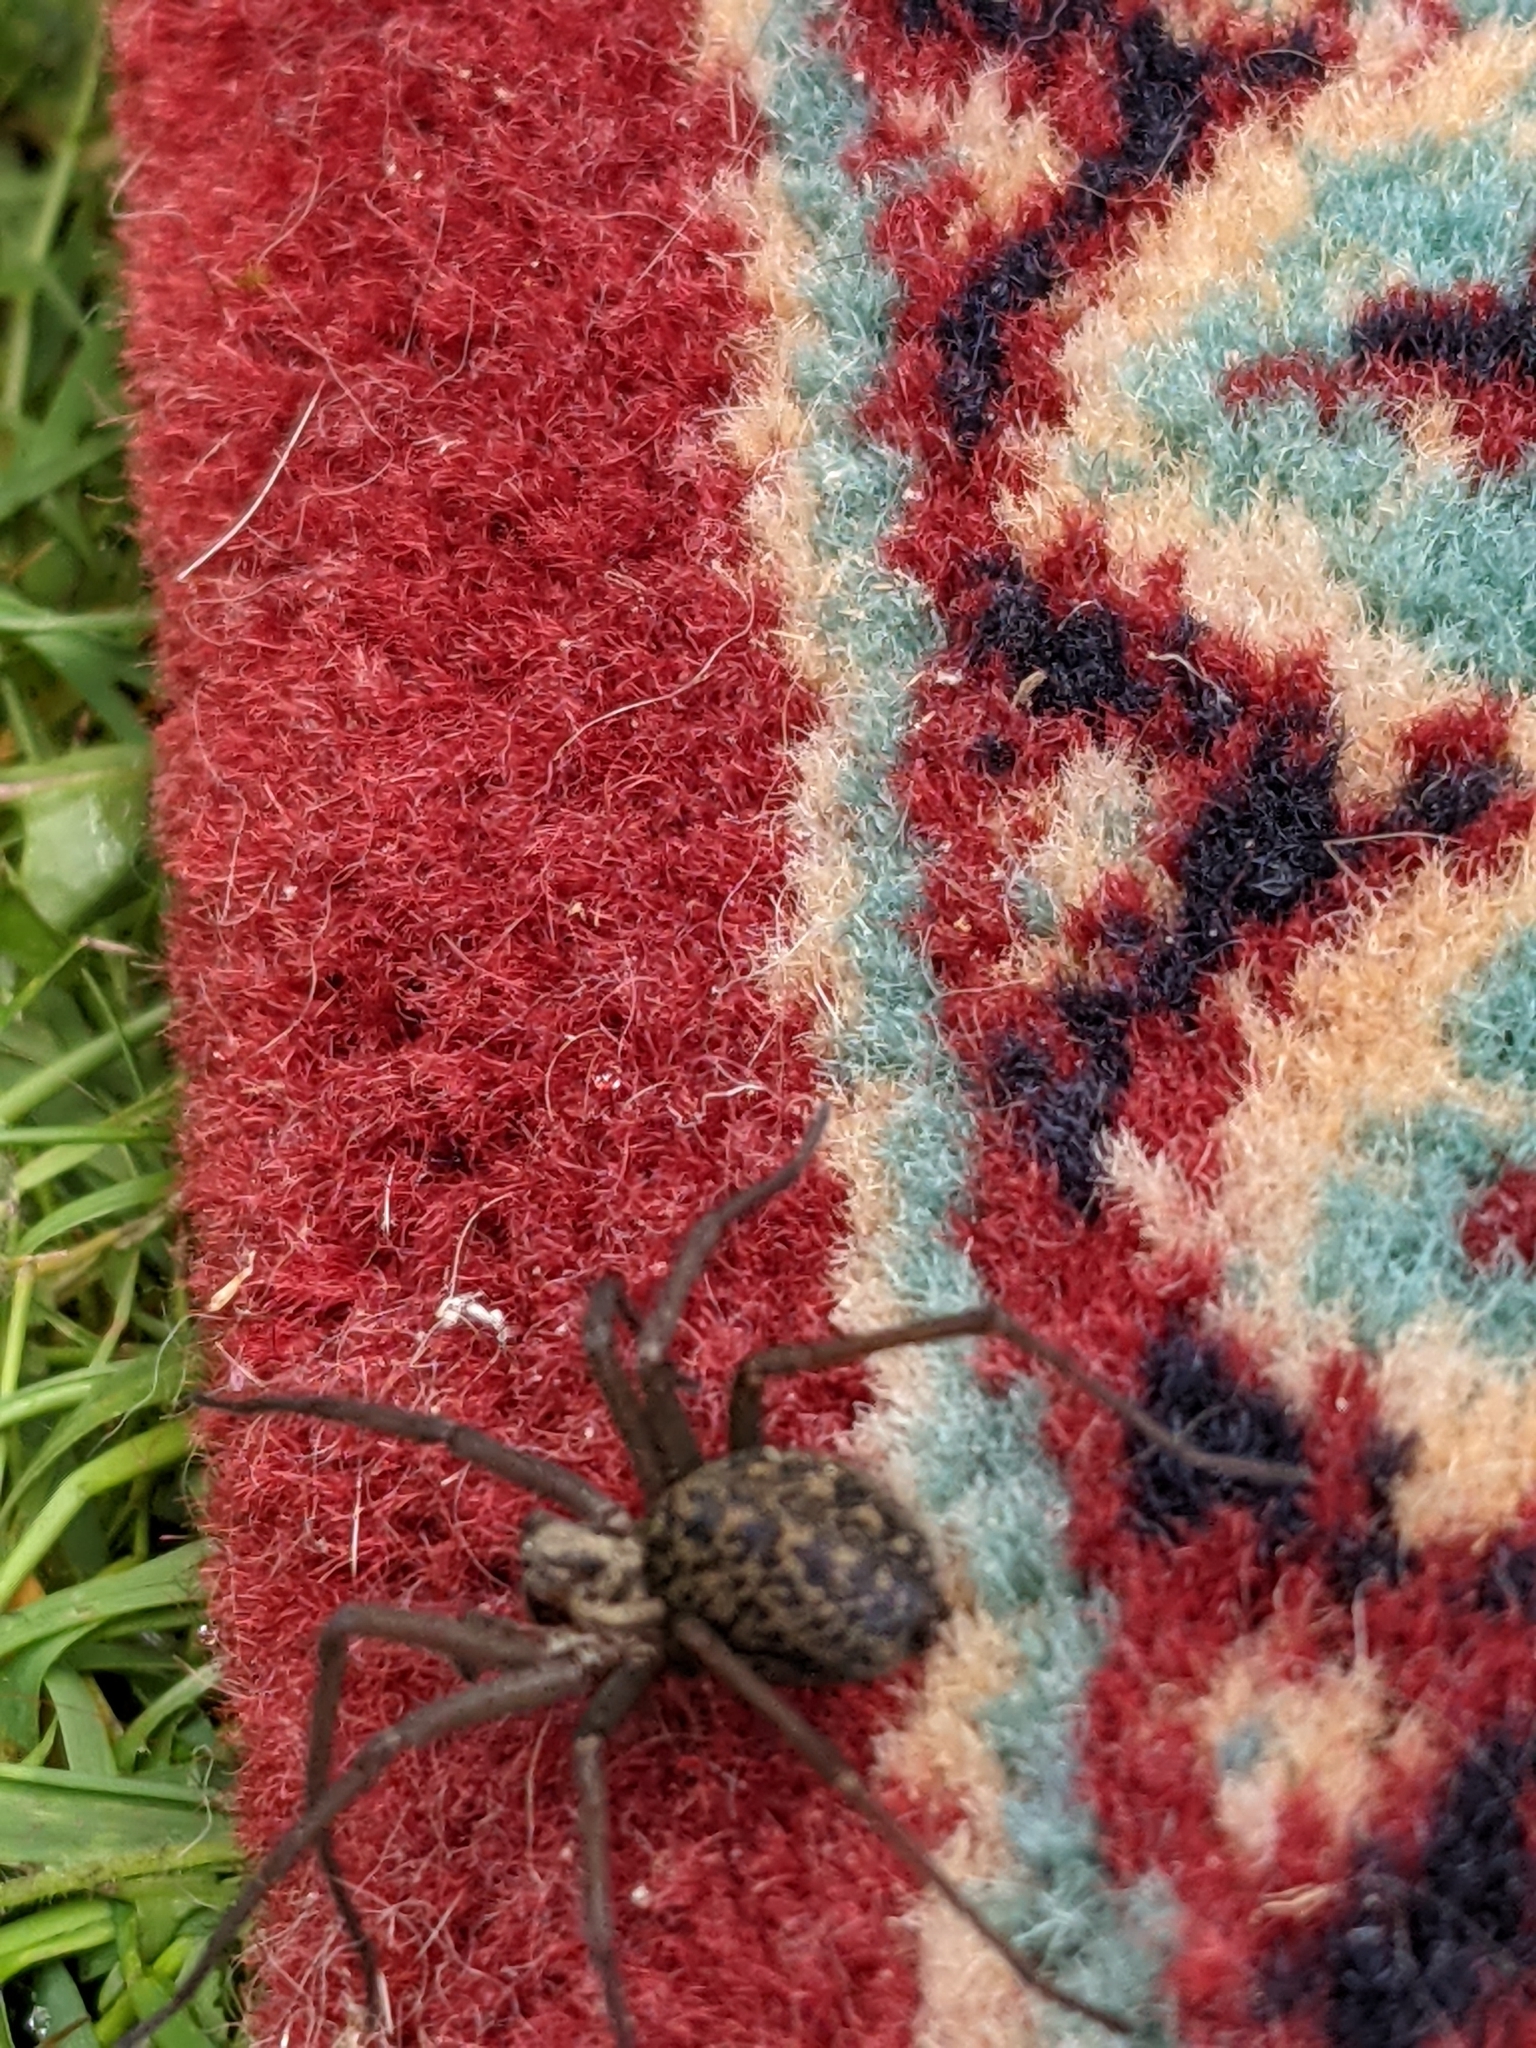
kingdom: Animalia
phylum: Arthropoda
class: Arachnida
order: Araneae
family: Agelenidae
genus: Eratigena
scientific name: Eratigena duellica
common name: Giant house spider
